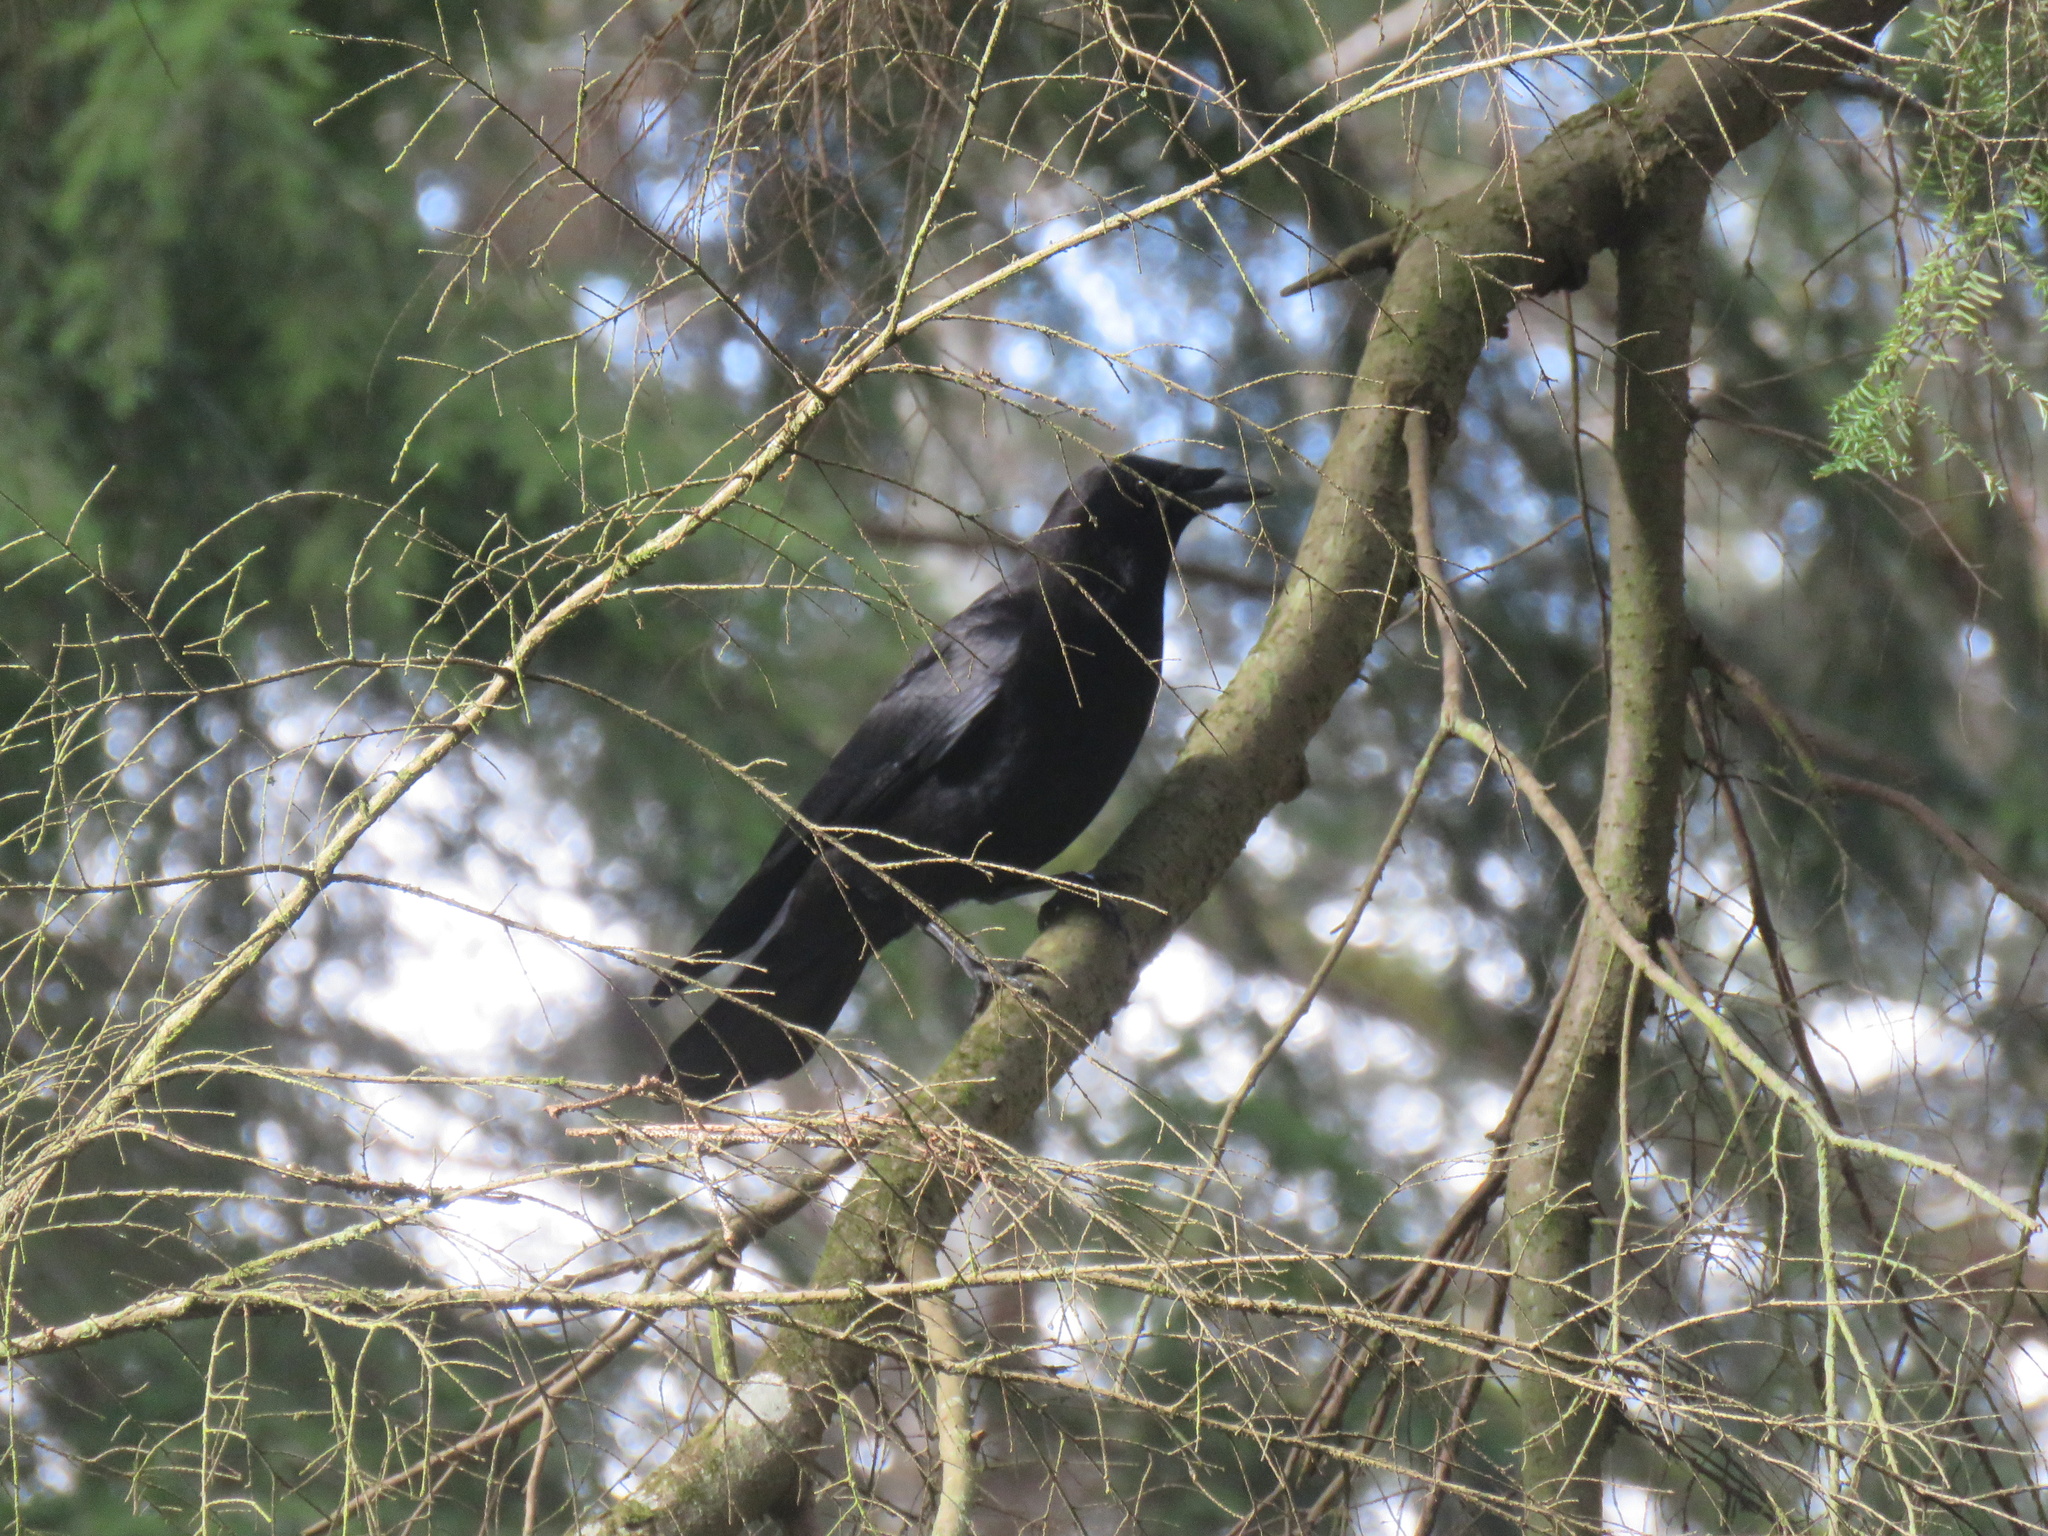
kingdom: Animalia
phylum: Chordata
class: Aves
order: Passeriformes
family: Corvidae
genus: Corvus
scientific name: Corvus brachyrhynchos
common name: American crow
